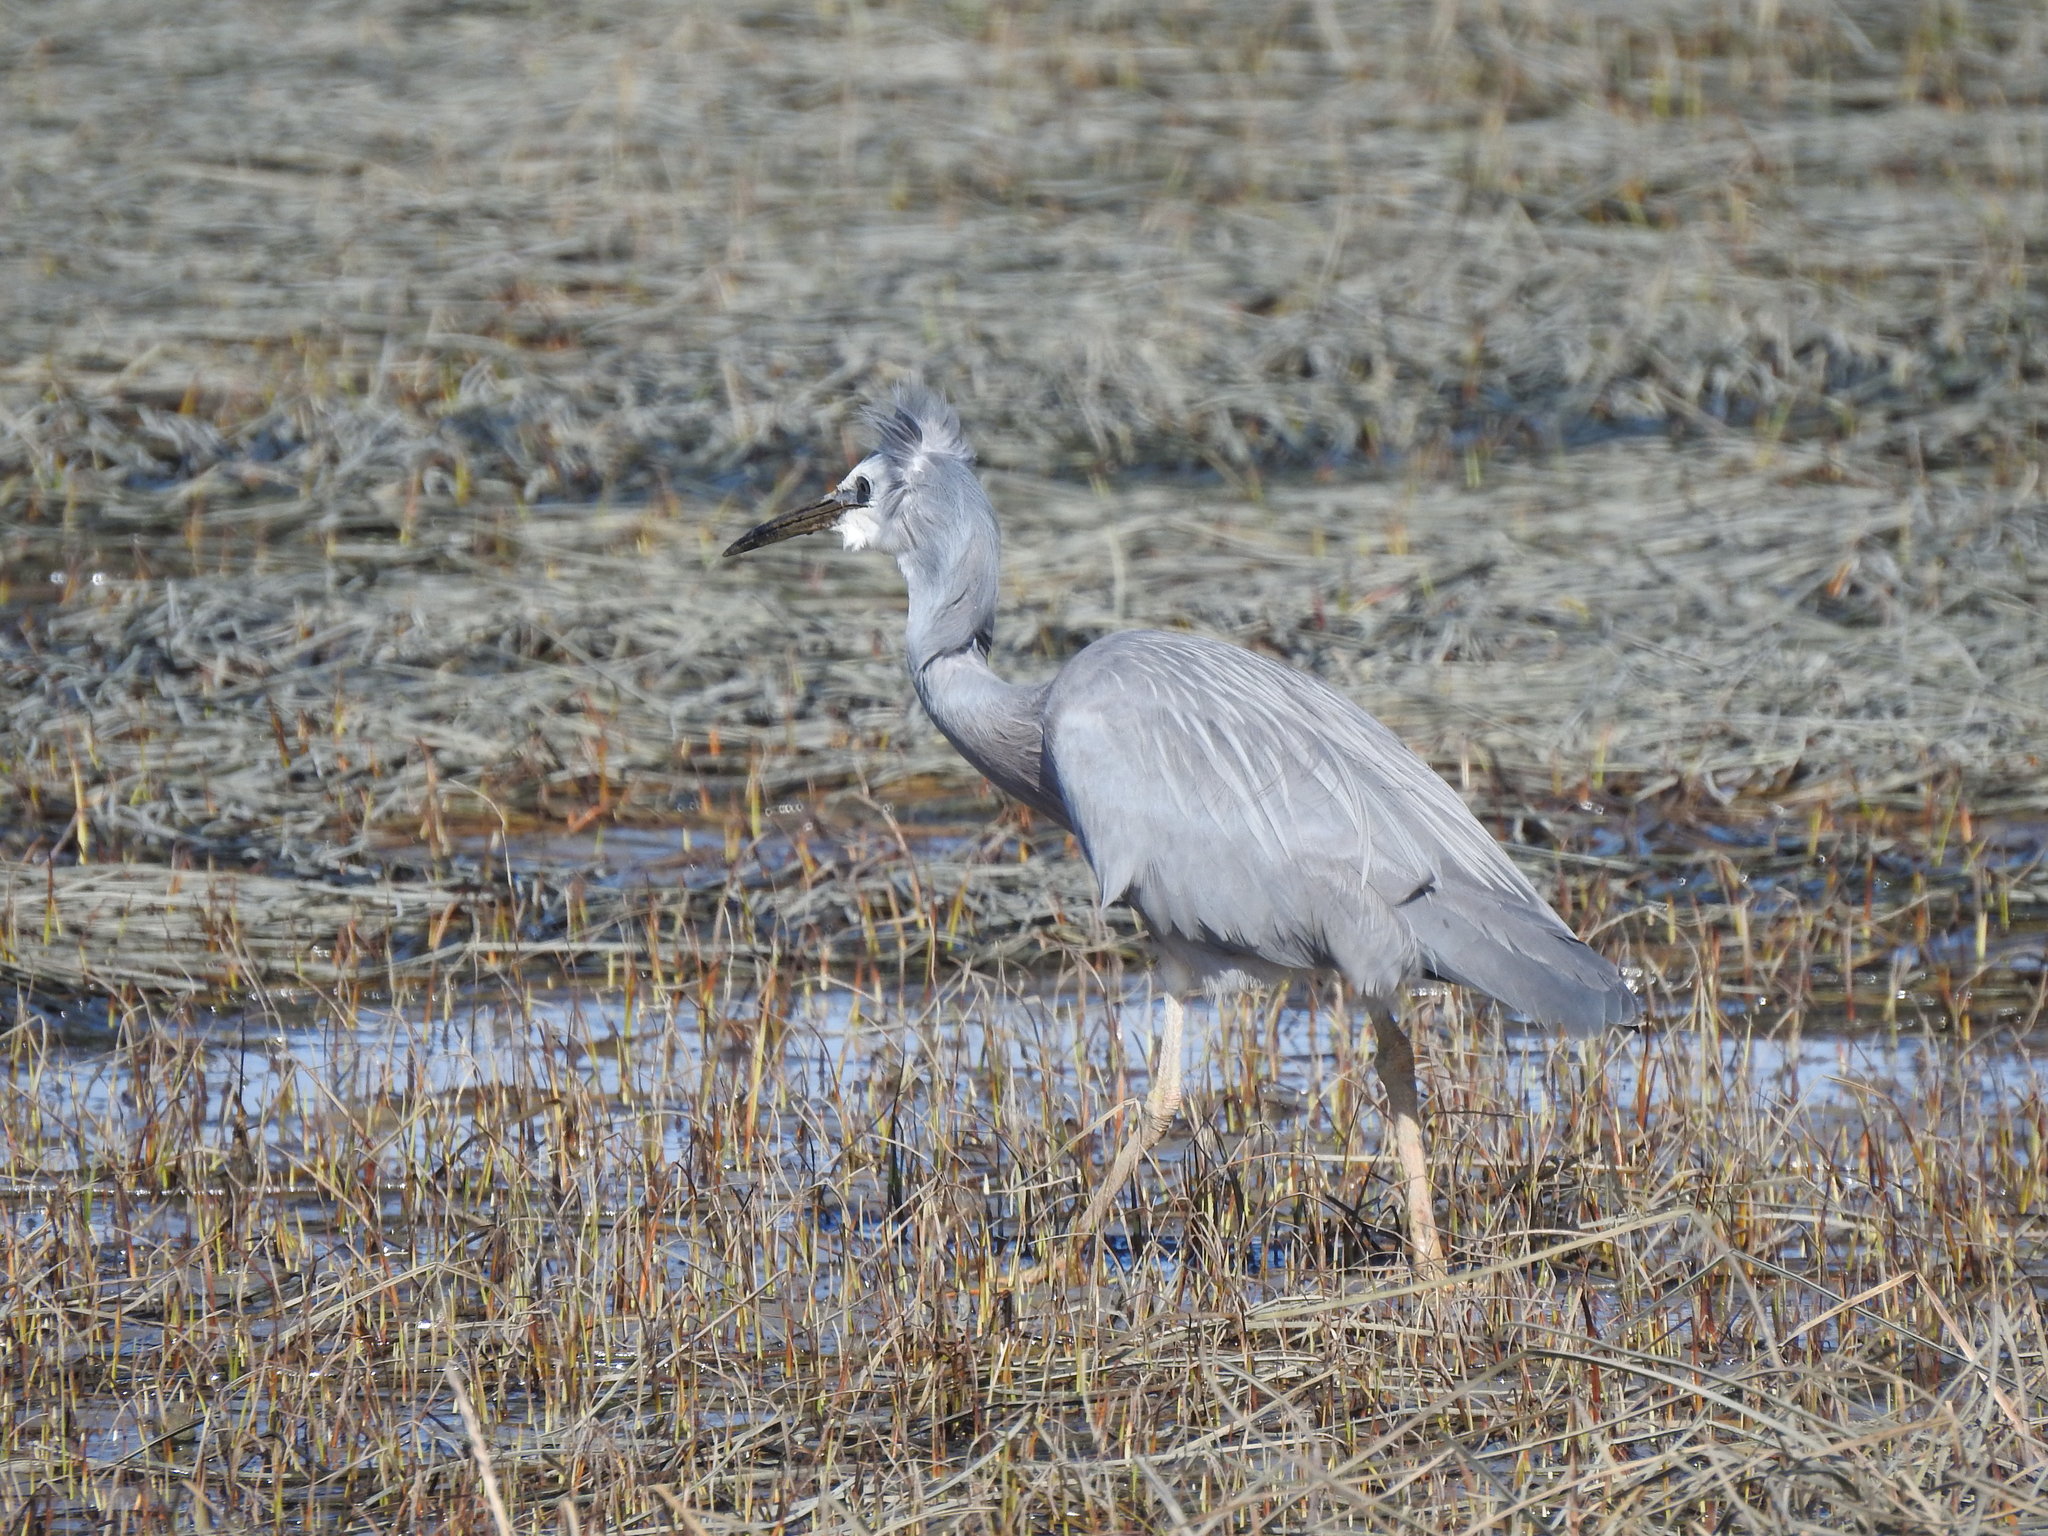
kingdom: Animalia
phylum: Chordata
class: Aves
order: Pelecaniformes
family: Ardeidae
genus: Egretta
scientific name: Egretta novaehollandiae
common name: White-faced heron
